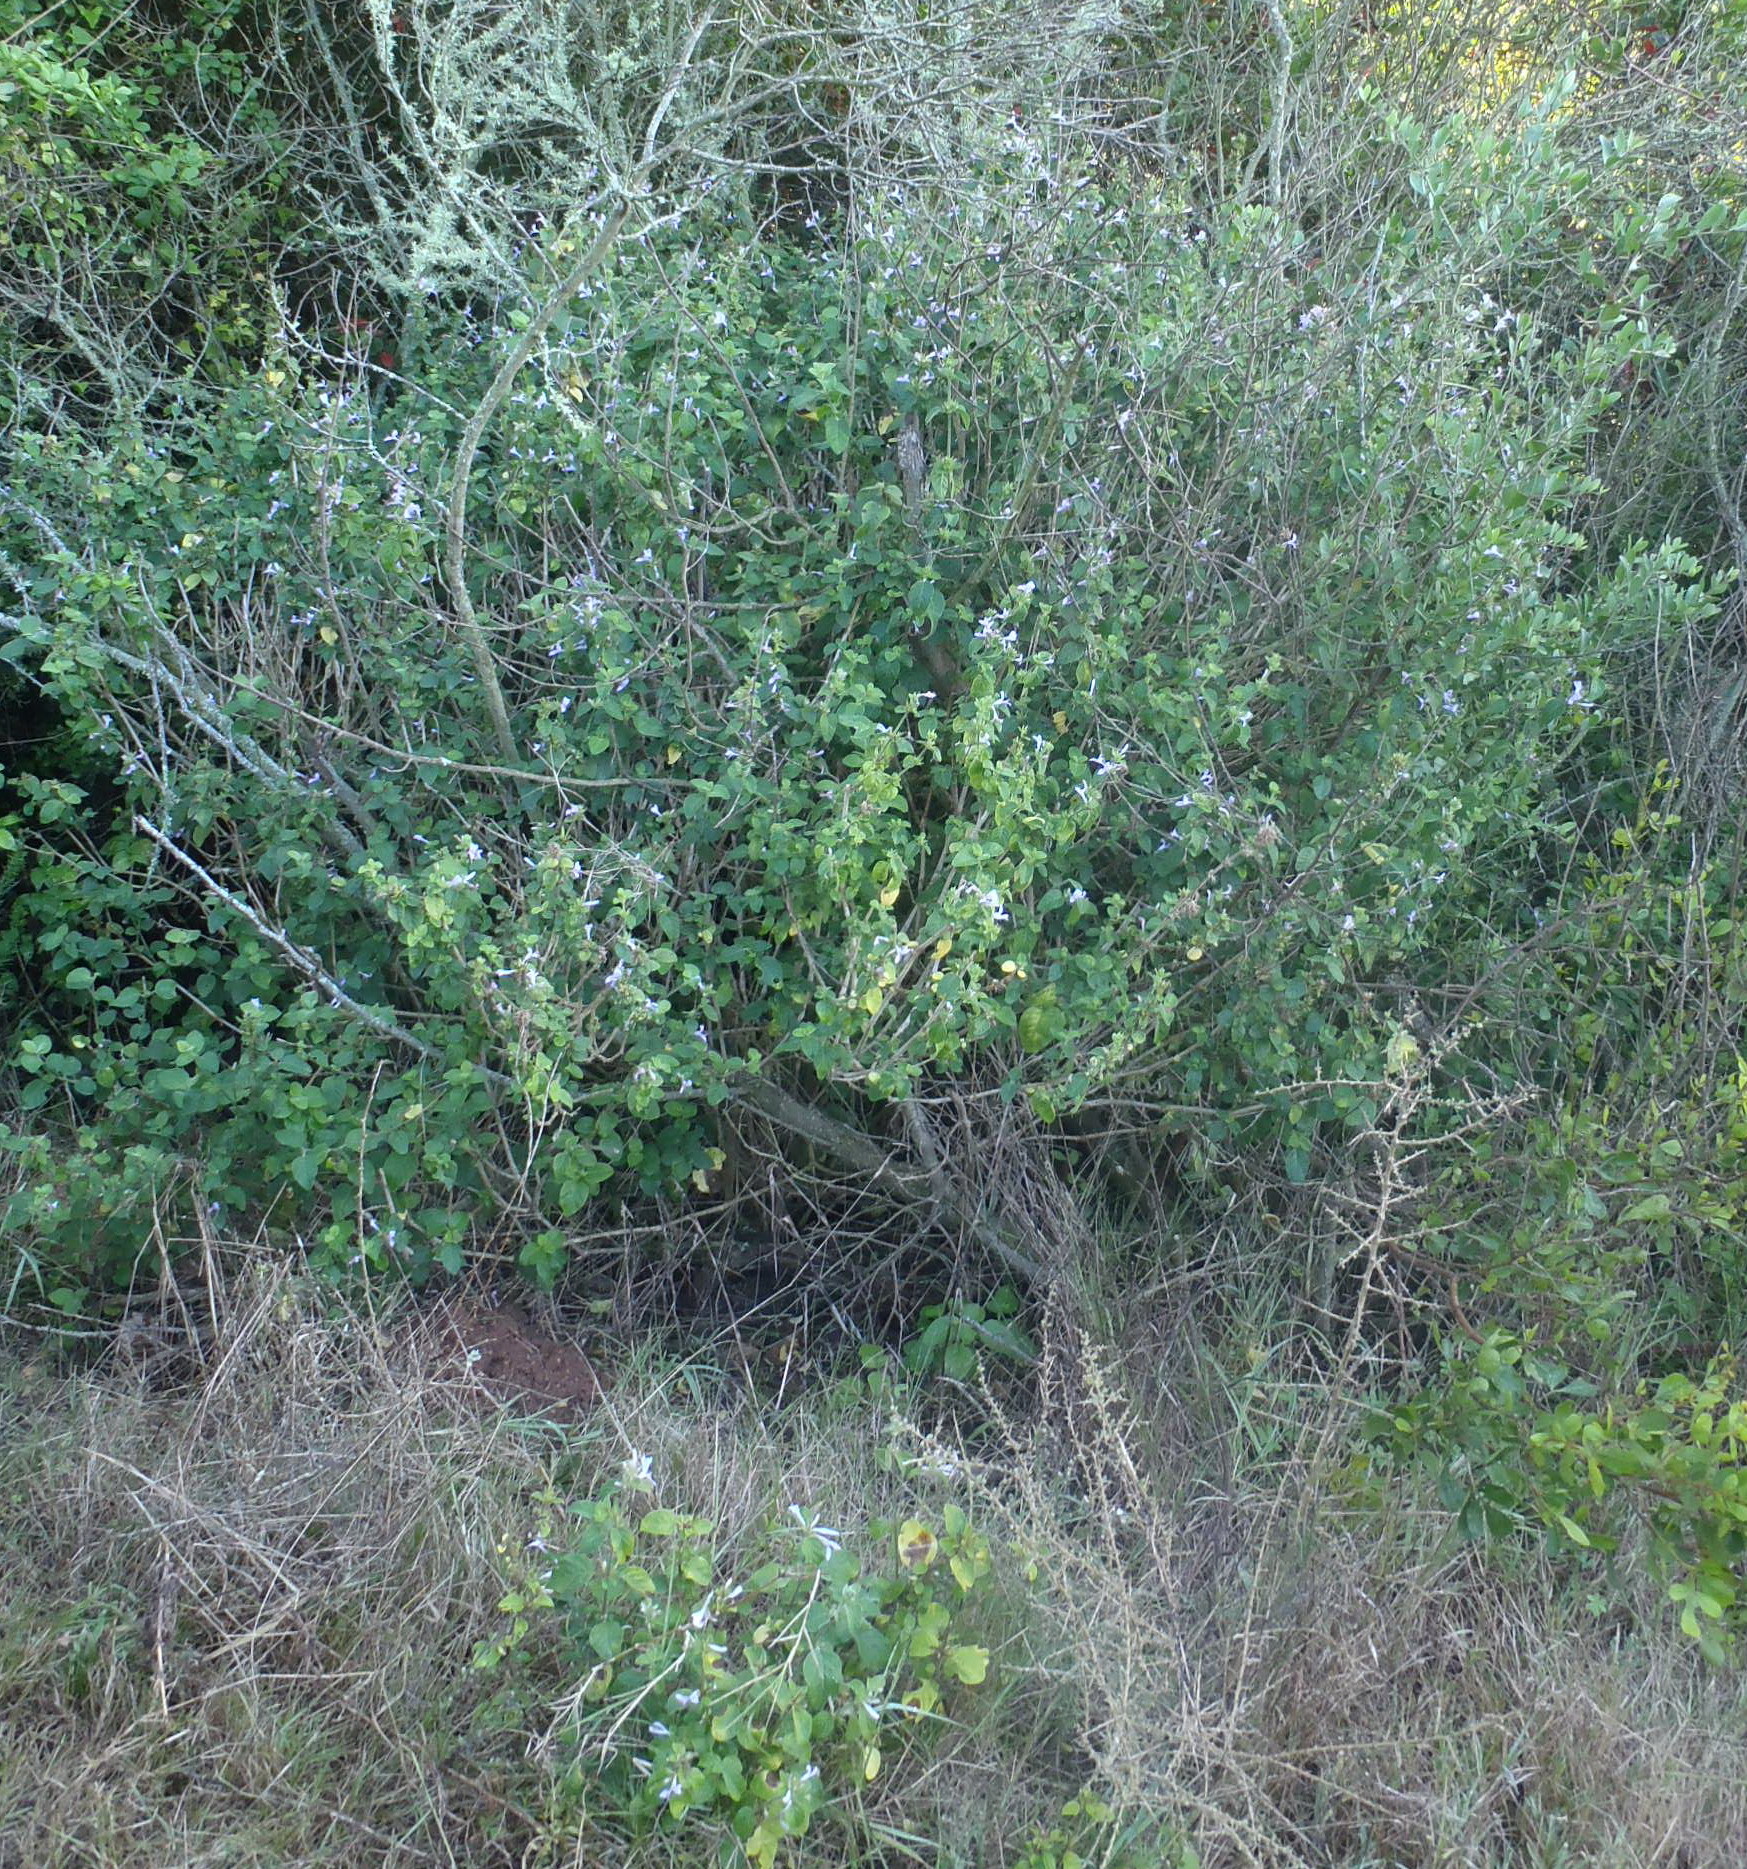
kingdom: Plantae
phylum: Tracheophyta
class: Magnoliopsida
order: Lamiales
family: Acanthaceae
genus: Hypoestes
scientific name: Hypoestes aristata
